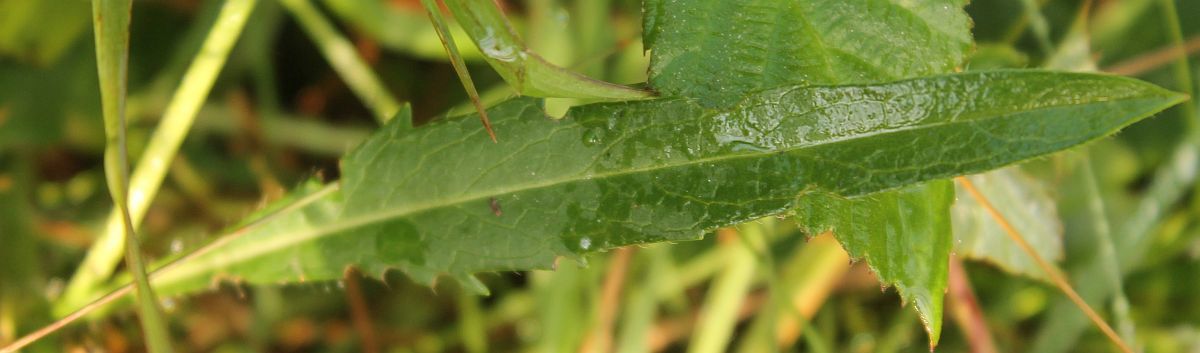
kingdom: Plantae
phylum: Tracheophyta
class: Magnoliopsida
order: Dipsacales
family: Caprifoliaceae
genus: Succisa
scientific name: Succisa pratensis
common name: Devil's-bit
